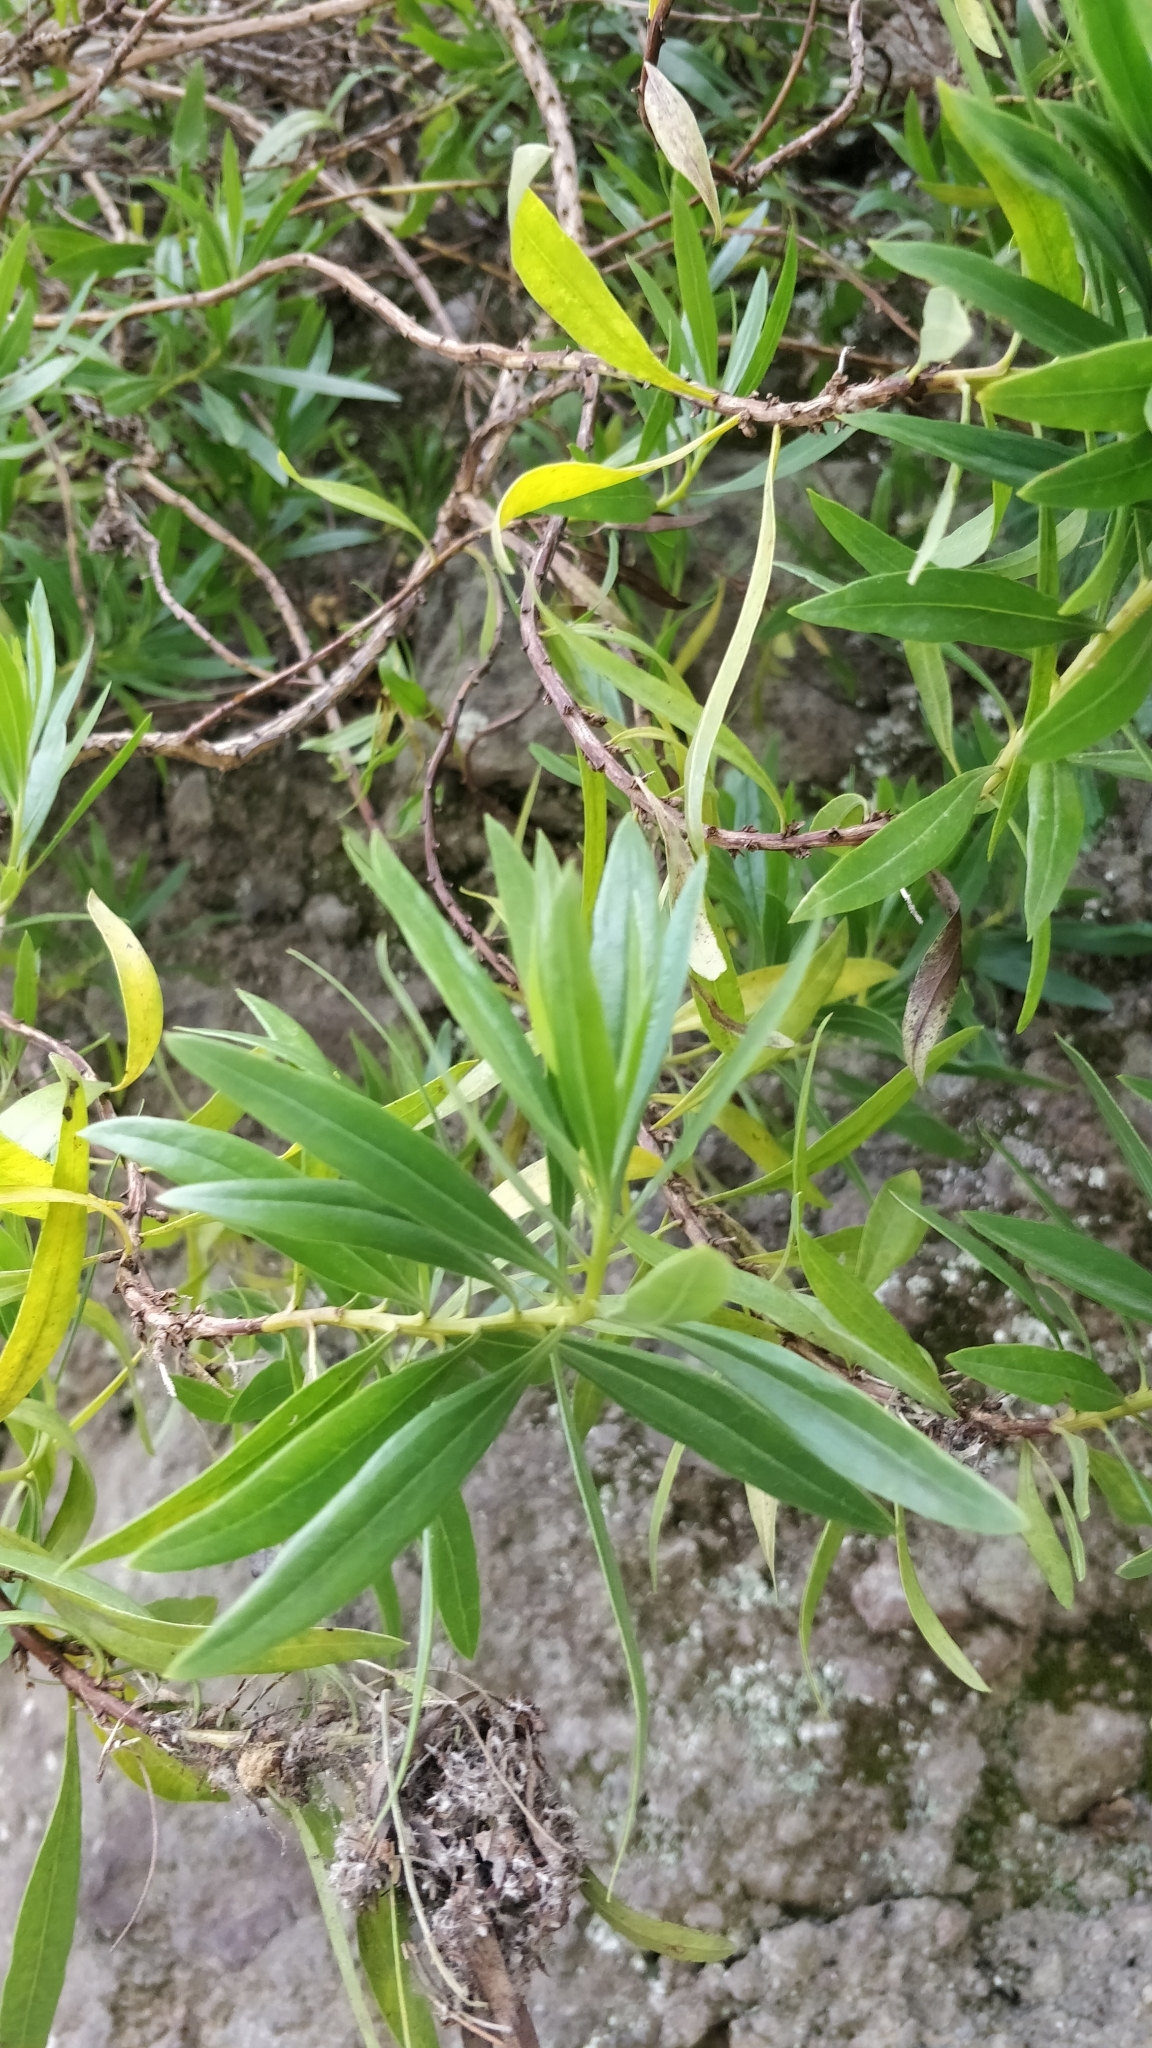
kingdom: Plantae
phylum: Tracheophyta
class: Magnoliopsida
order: Lamiales
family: Plantaginaceae
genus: Globularia
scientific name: Globularia salicina
